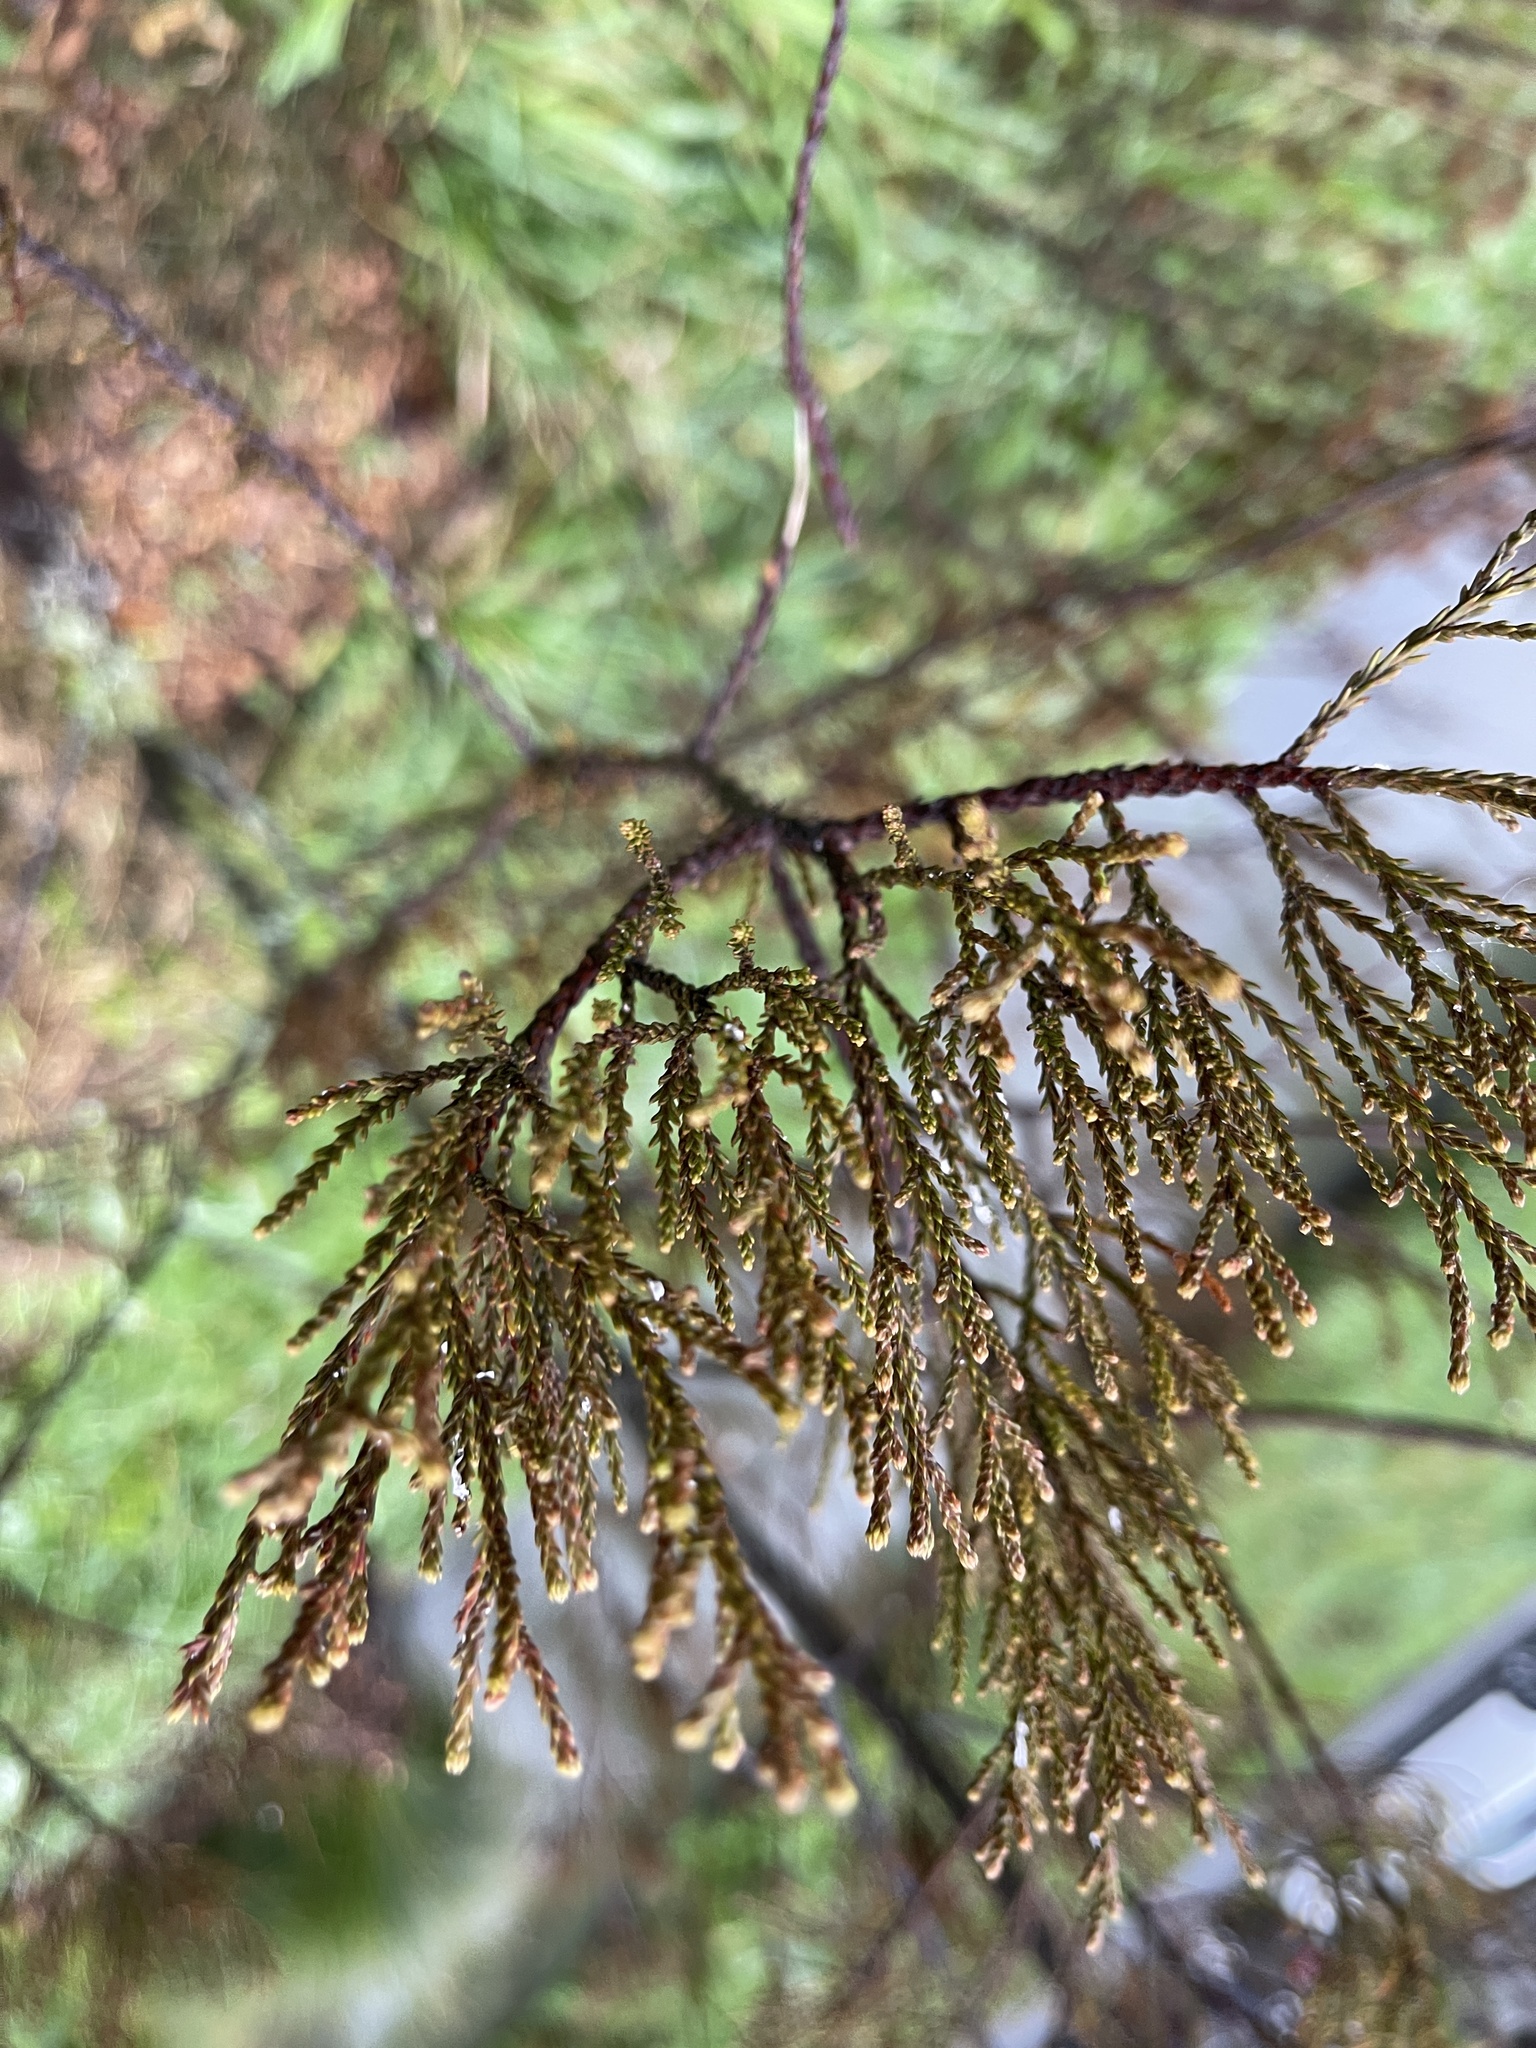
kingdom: Plantae
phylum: Tracheophyta
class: Pinopsida
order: Pinales
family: Podocarpaceae
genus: Dacrycarpus
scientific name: Dacrycarpus dacrydioides
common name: White pine
